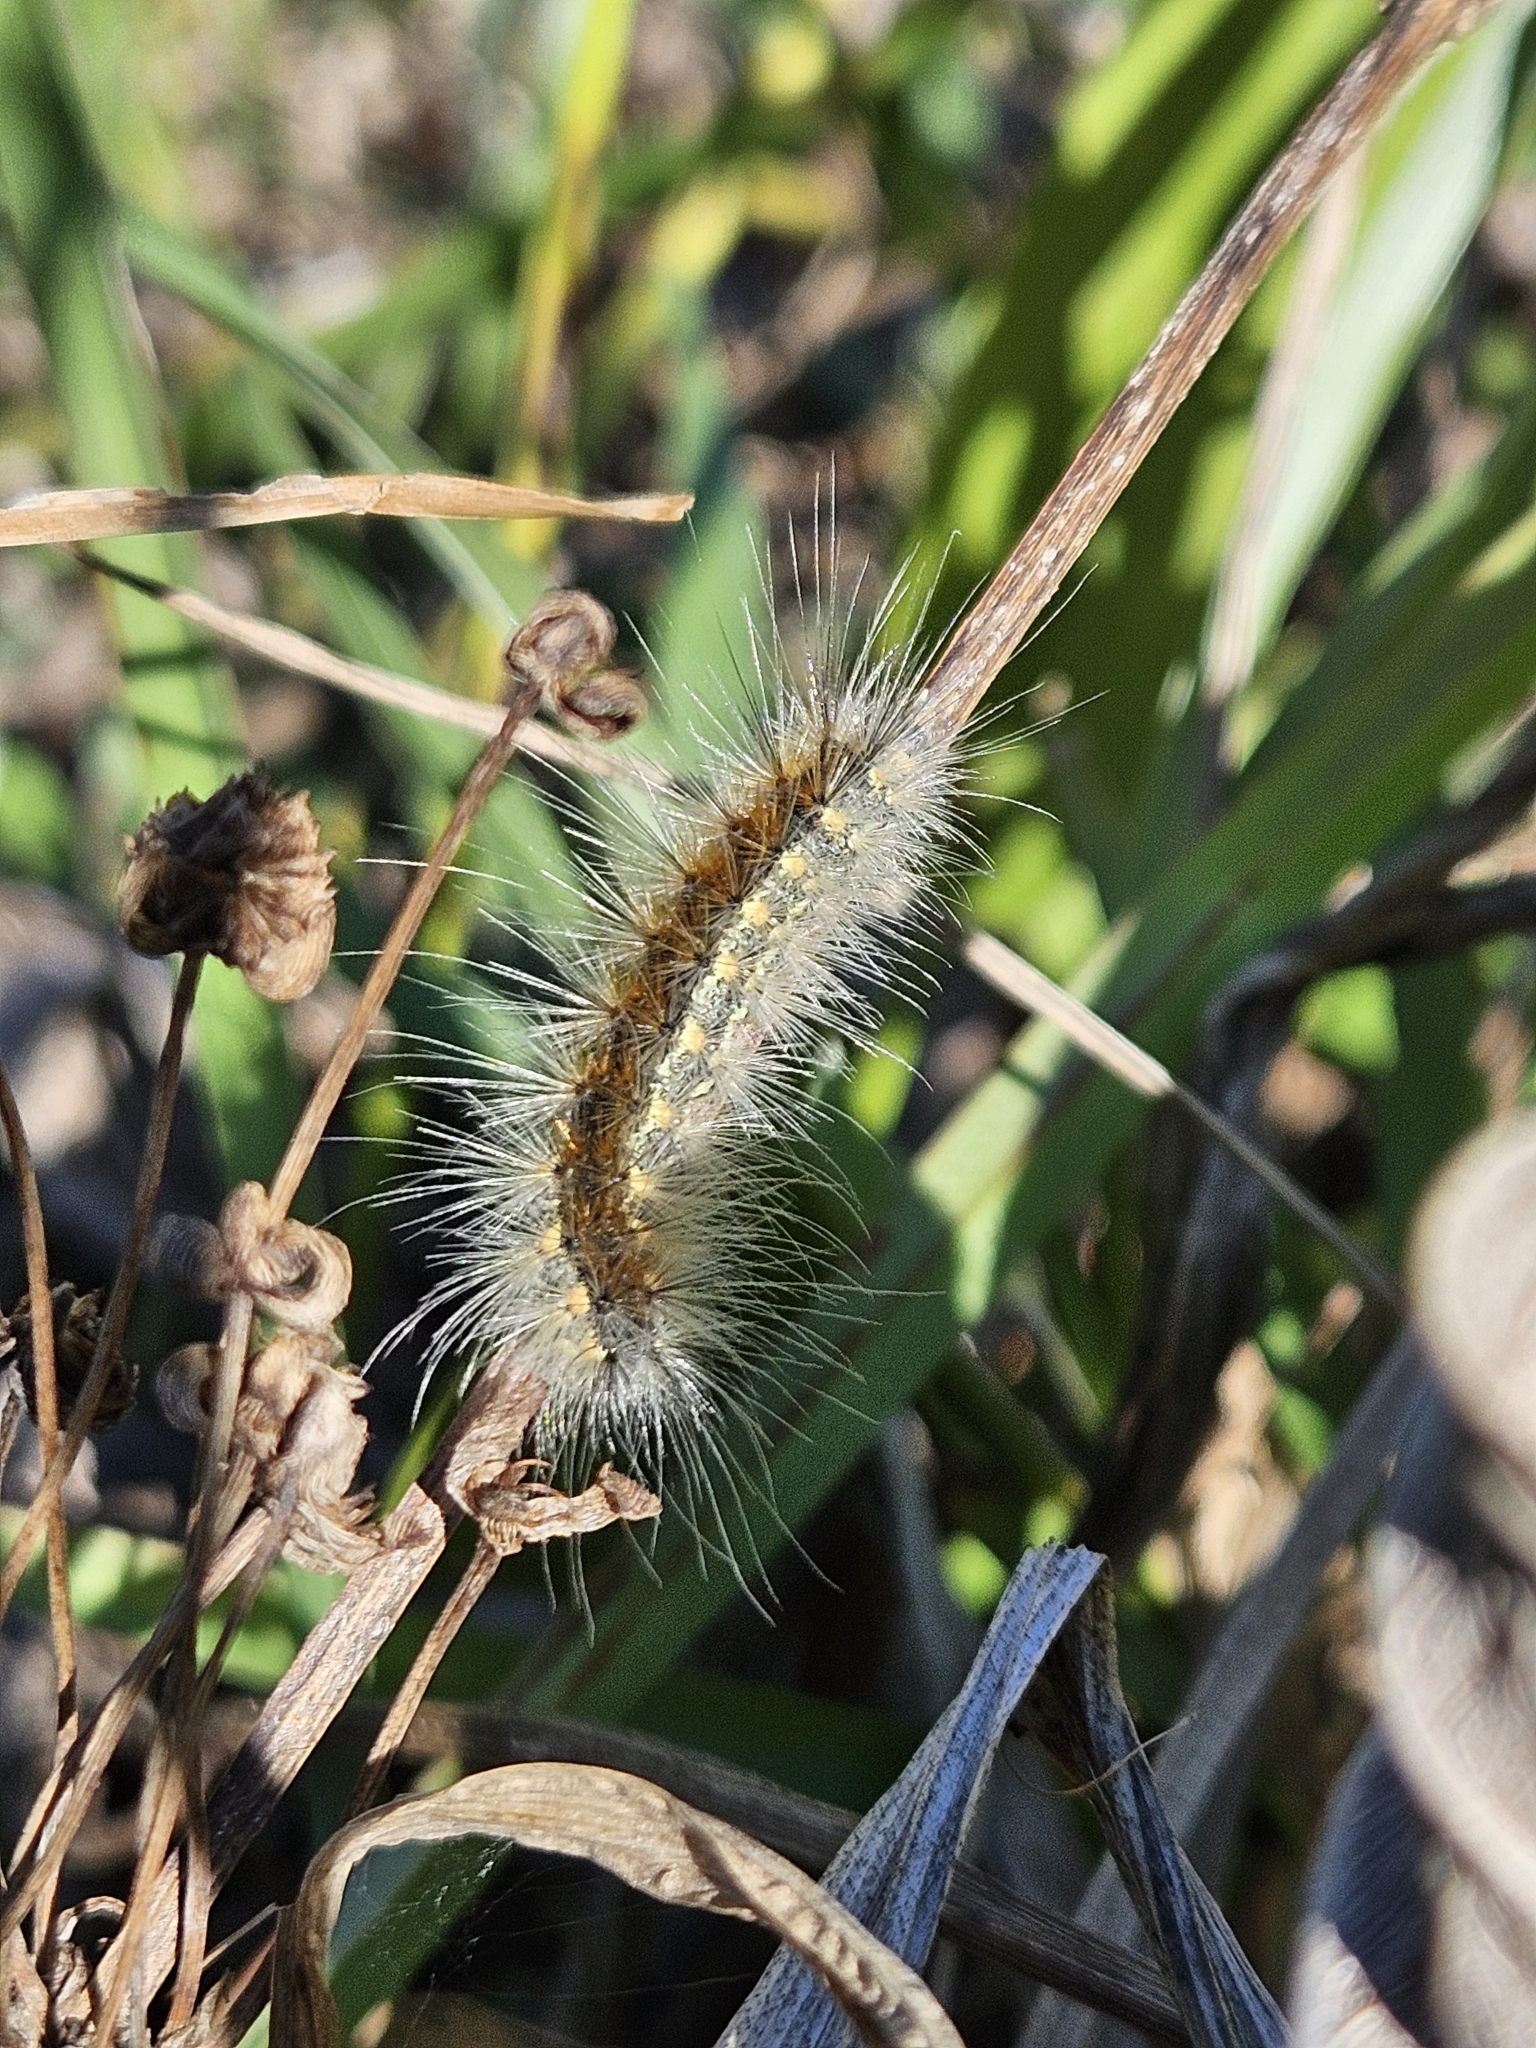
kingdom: Animalia
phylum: Arthropoda
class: Insecta
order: Lepidoptera
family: Erebidae
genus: Hyphantria
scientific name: Hyphantria cunea
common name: American white moth
